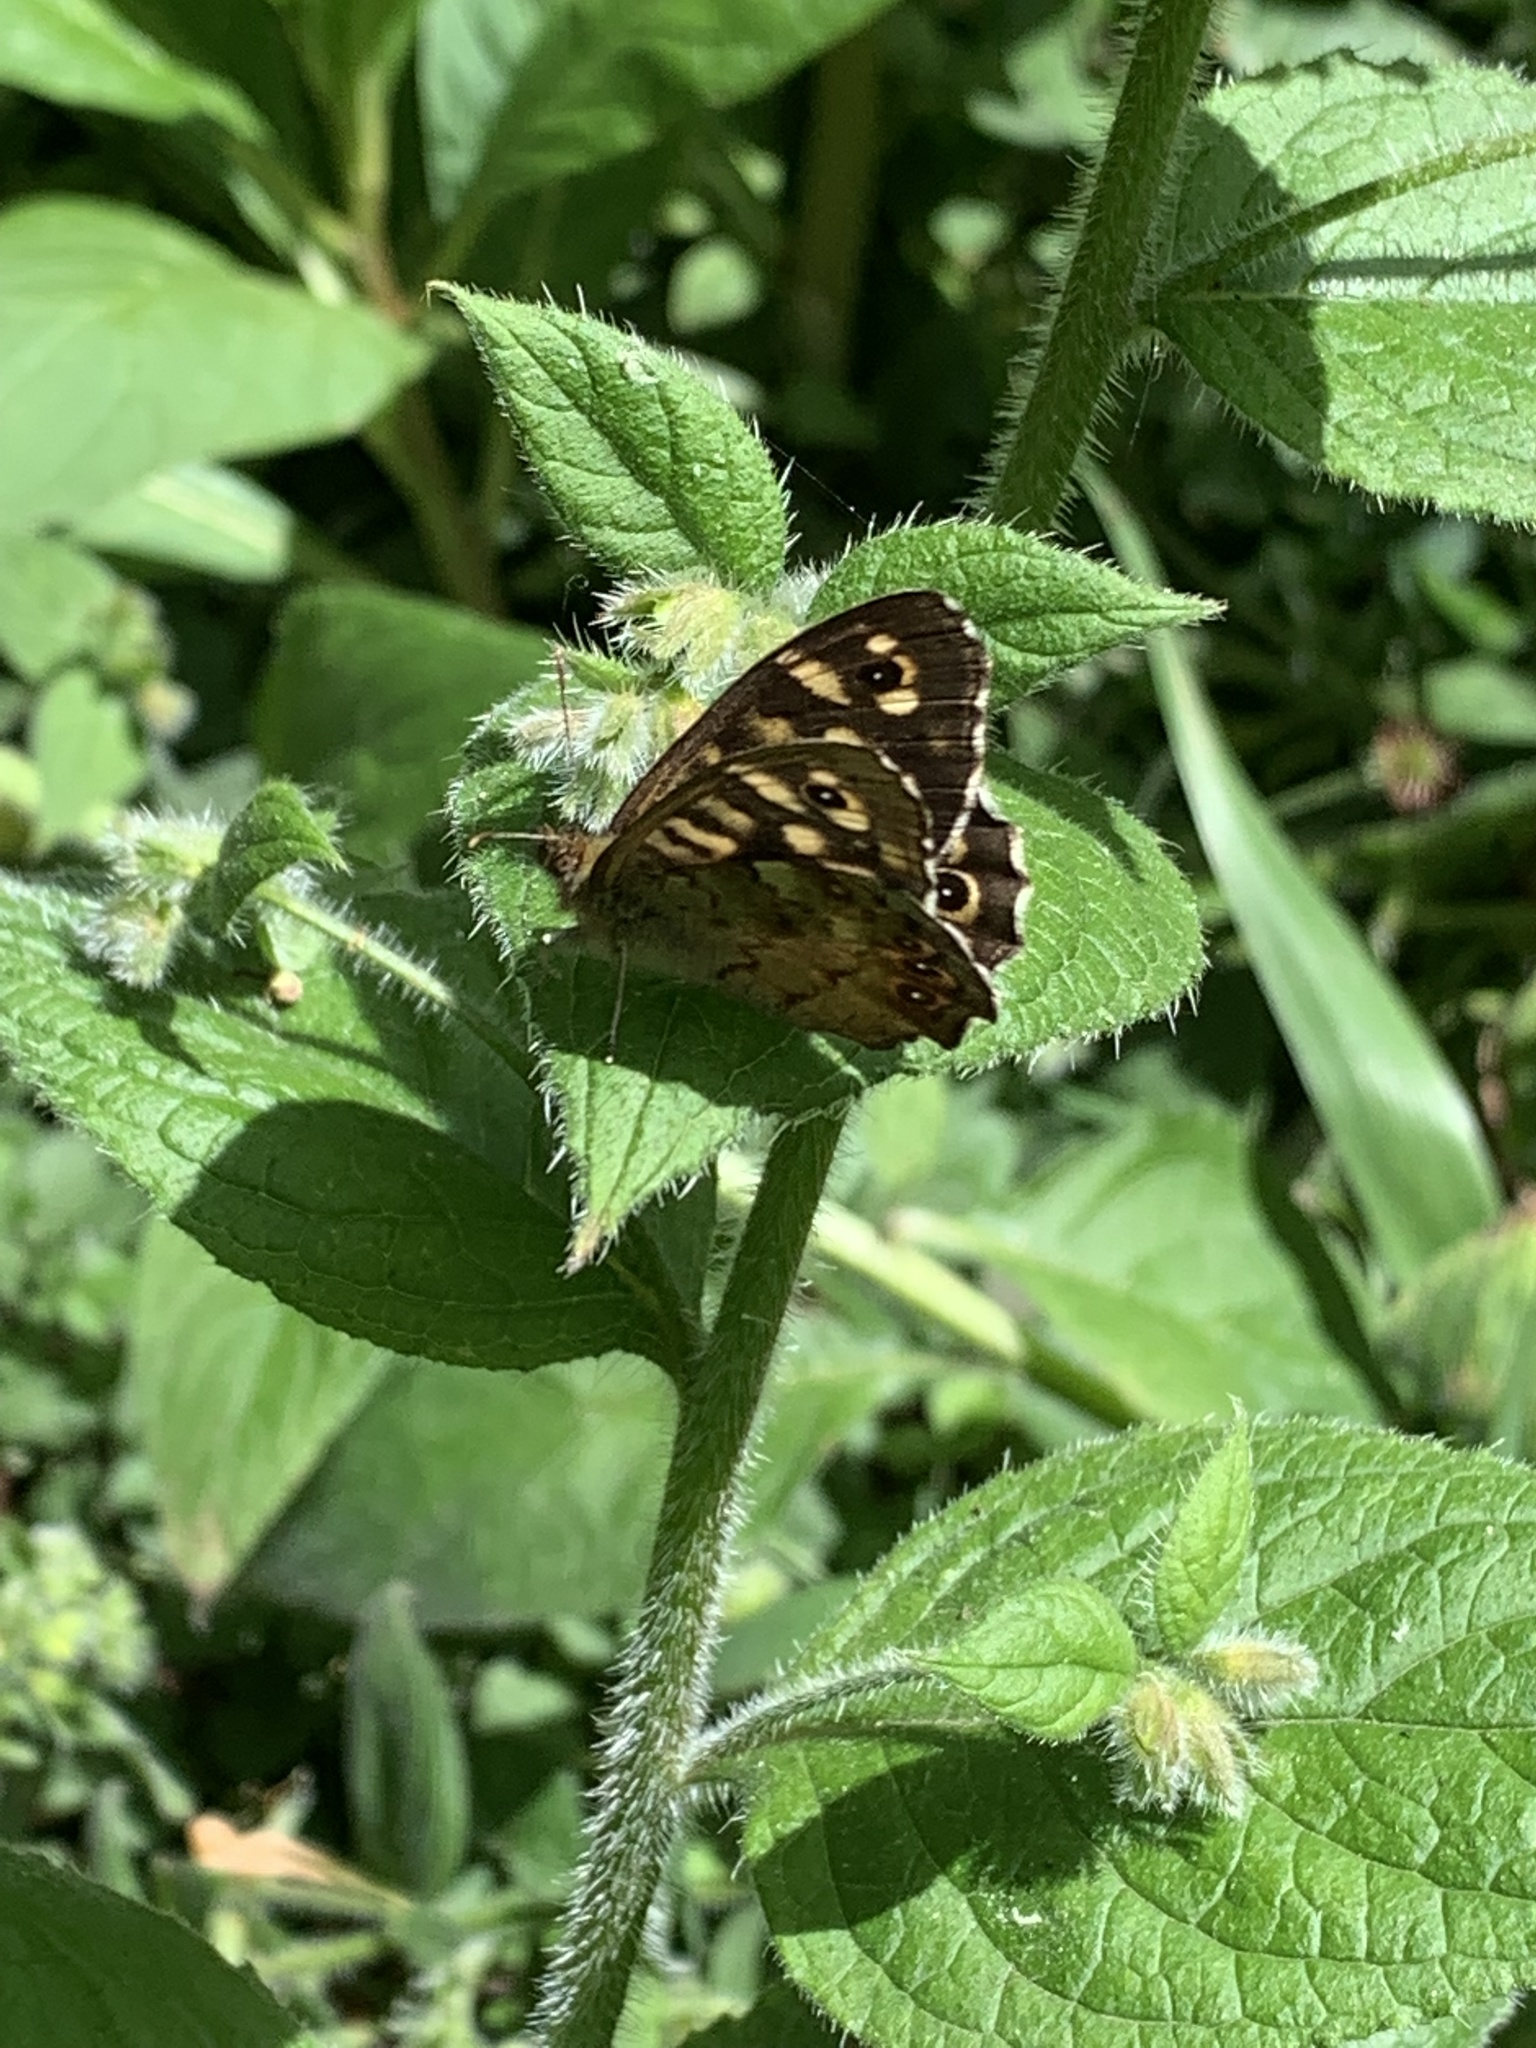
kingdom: Animalia
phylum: Arthropoda
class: Insecta
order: Lepidoptera
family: Nymphalidae
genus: Pararge
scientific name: Pararge aegeria
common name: Speckled wood
